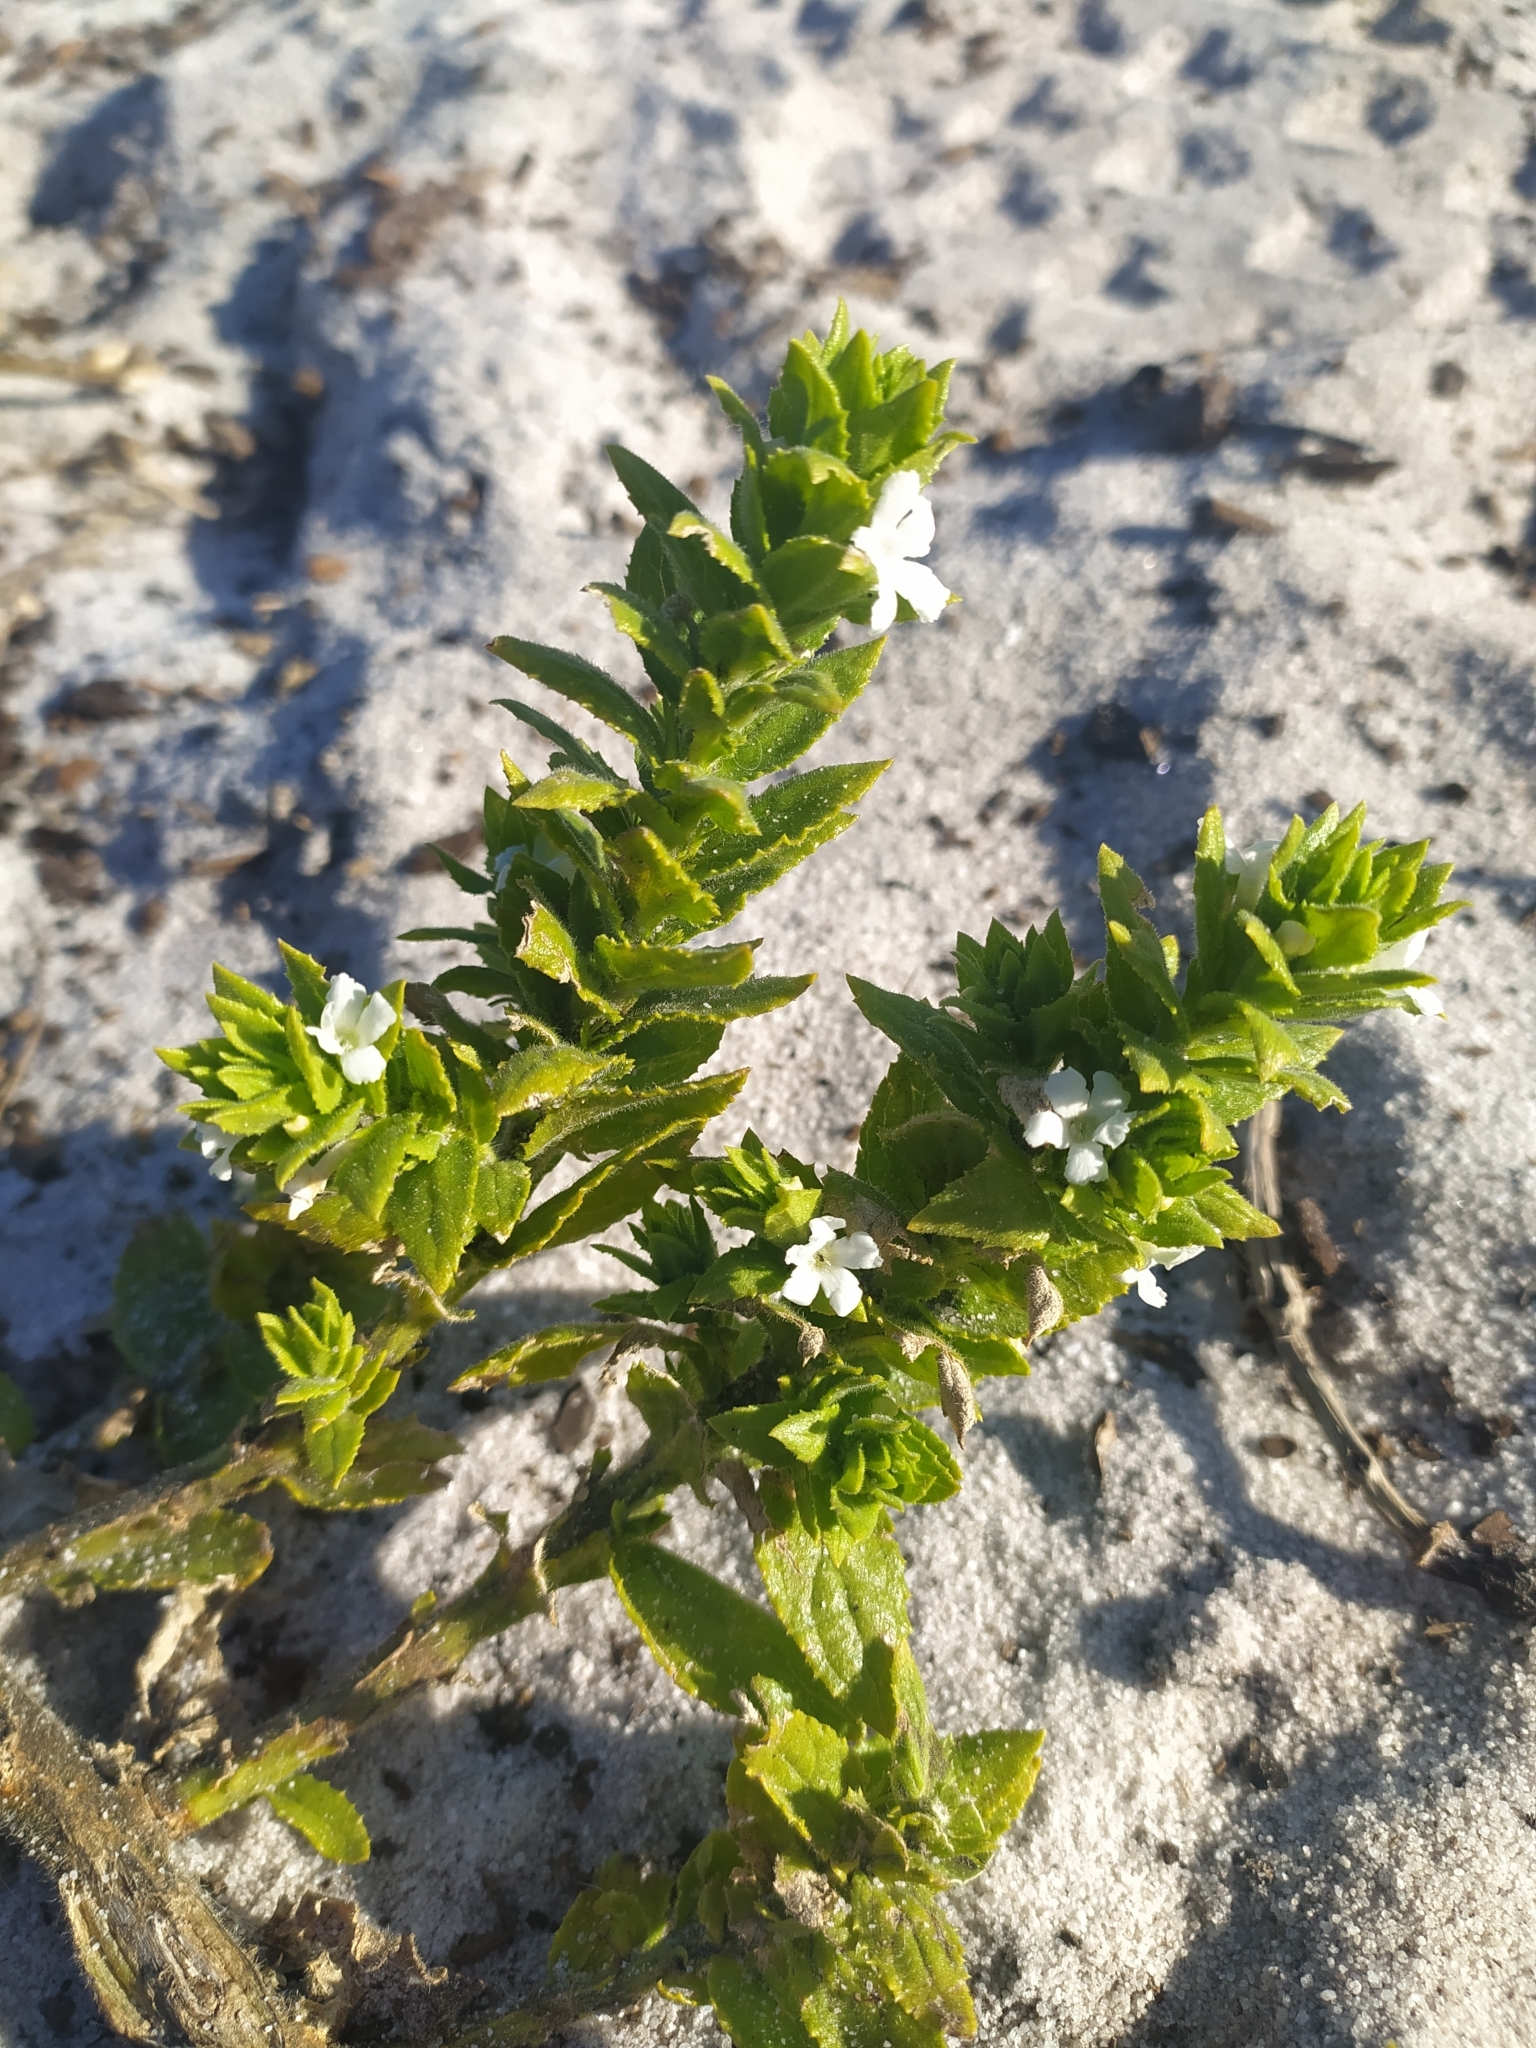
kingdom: Plantae
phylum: Tracheophyta
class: Magnoliopsida
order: Lamiales
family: Scrophulariaceae
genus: Oftia
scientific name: Oftia africana
